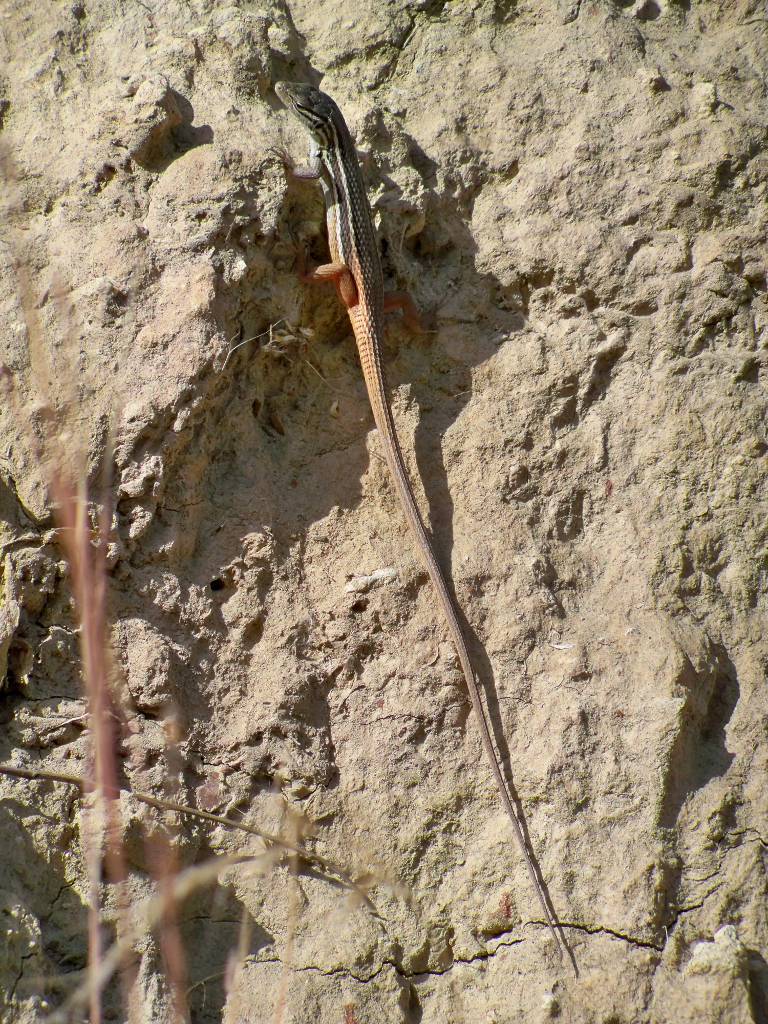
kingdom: Animalia
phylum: Chordata
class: Squamata
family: Lacertidae
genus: Psammodromus
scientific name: Psammodromus algirus
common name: Algerian psammodromus
